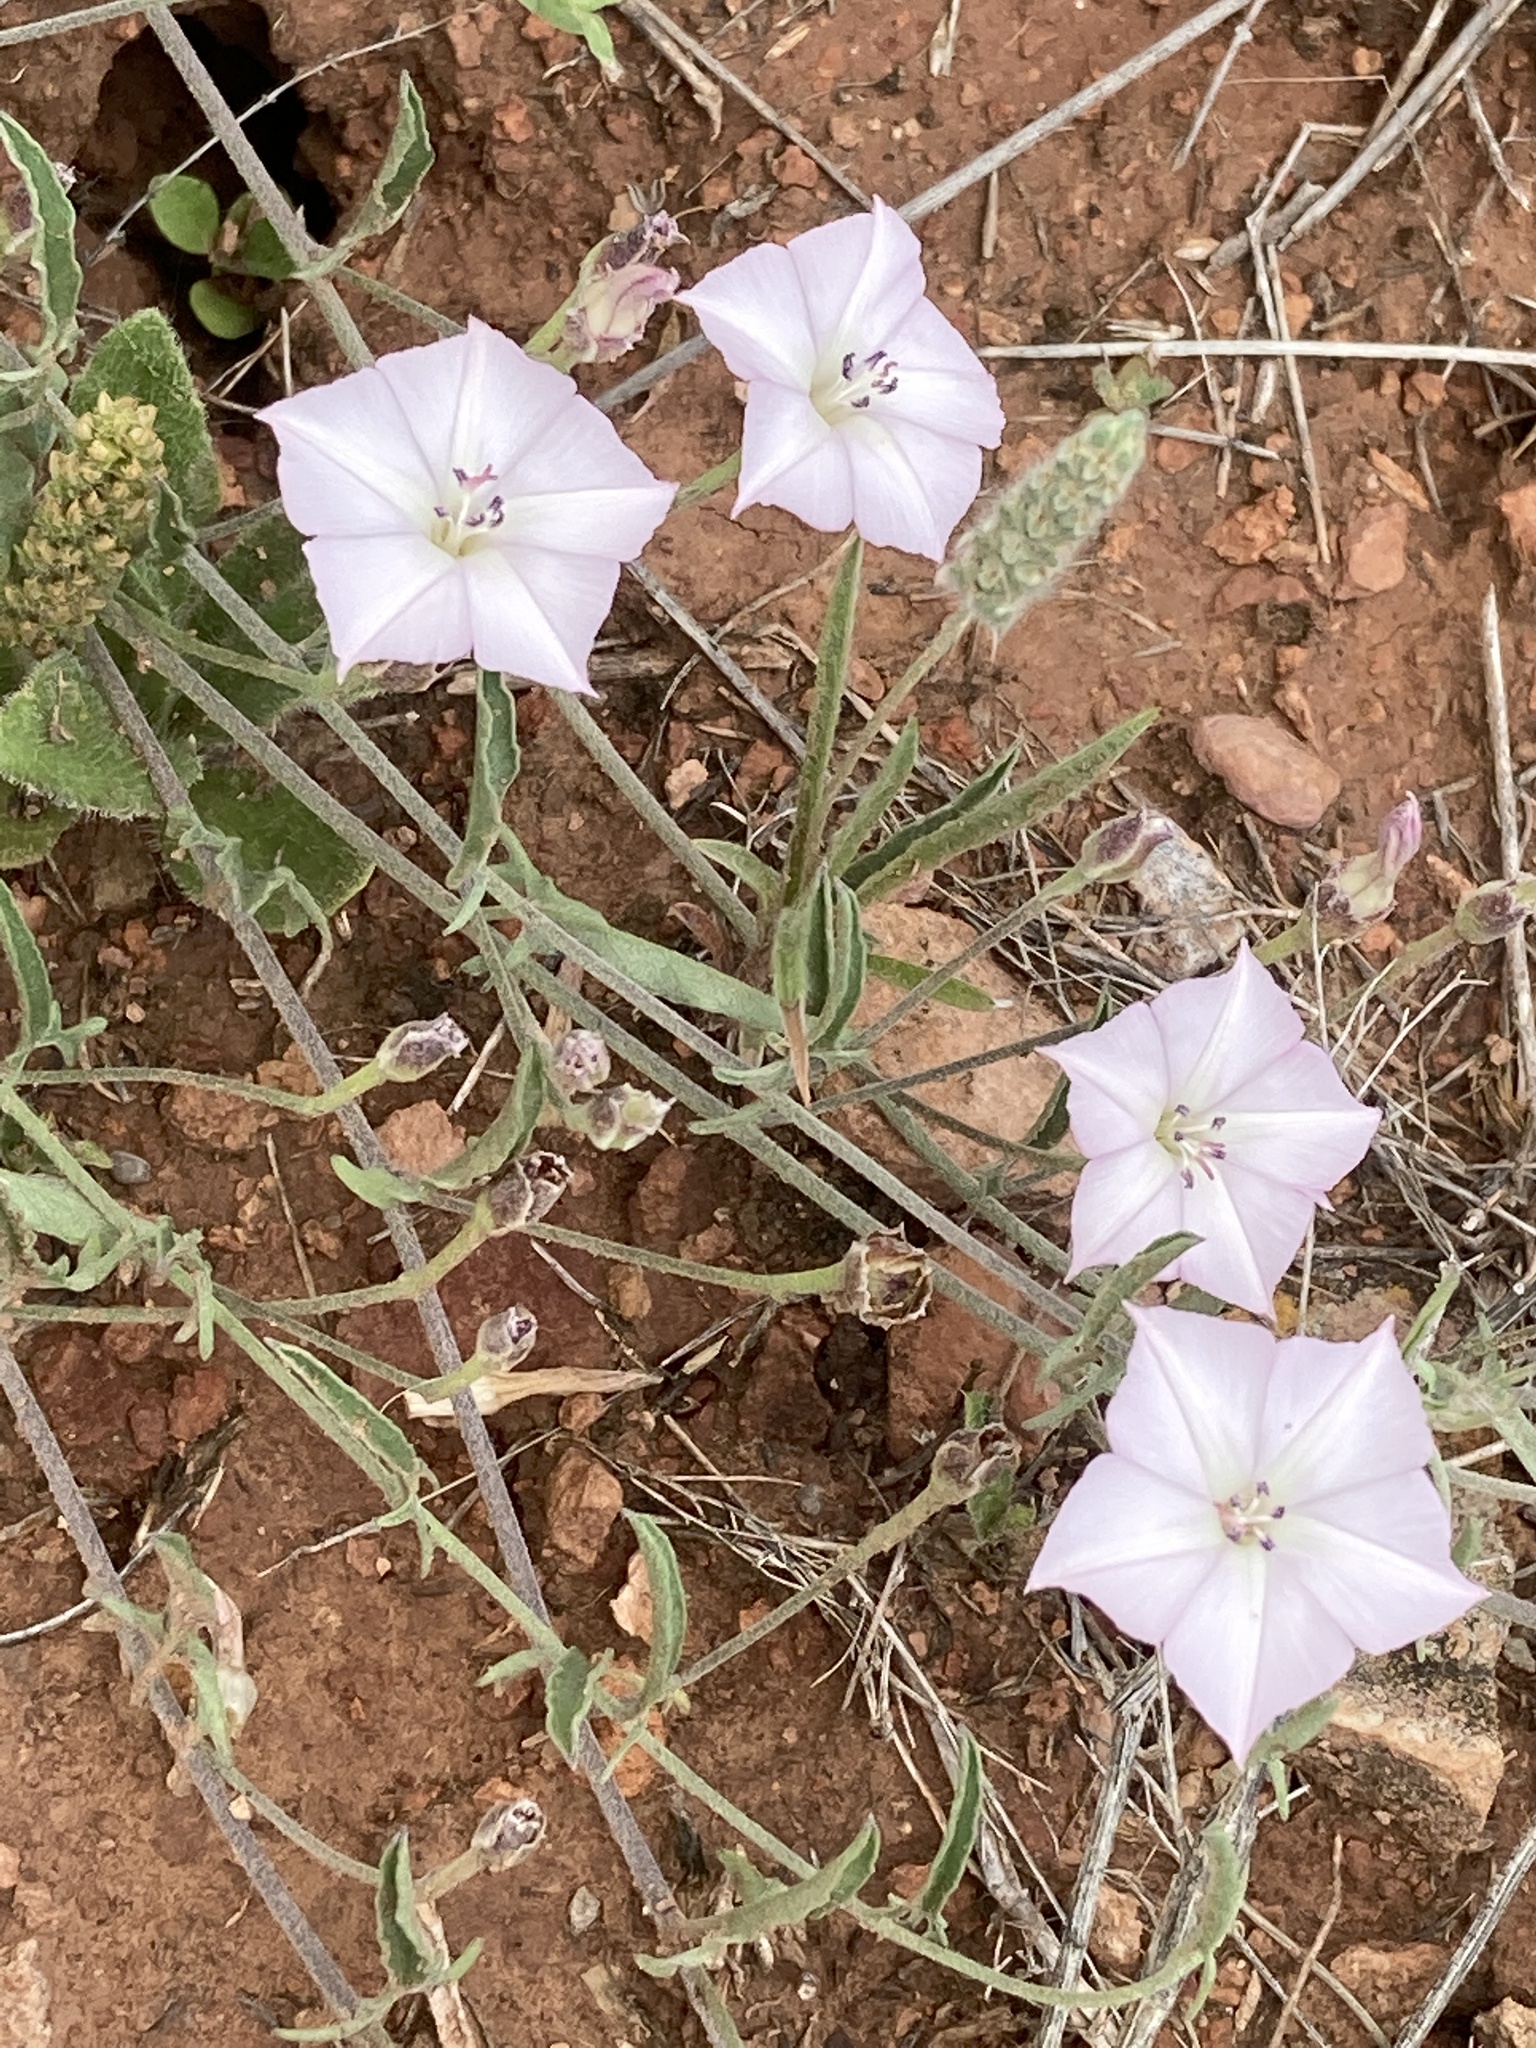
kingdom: Plantae
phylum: Tracheophyta
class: Magnoliopsida
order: Solanales
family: Convolvulaceae
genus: Convolvulus
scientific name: Convolvulus equitans
